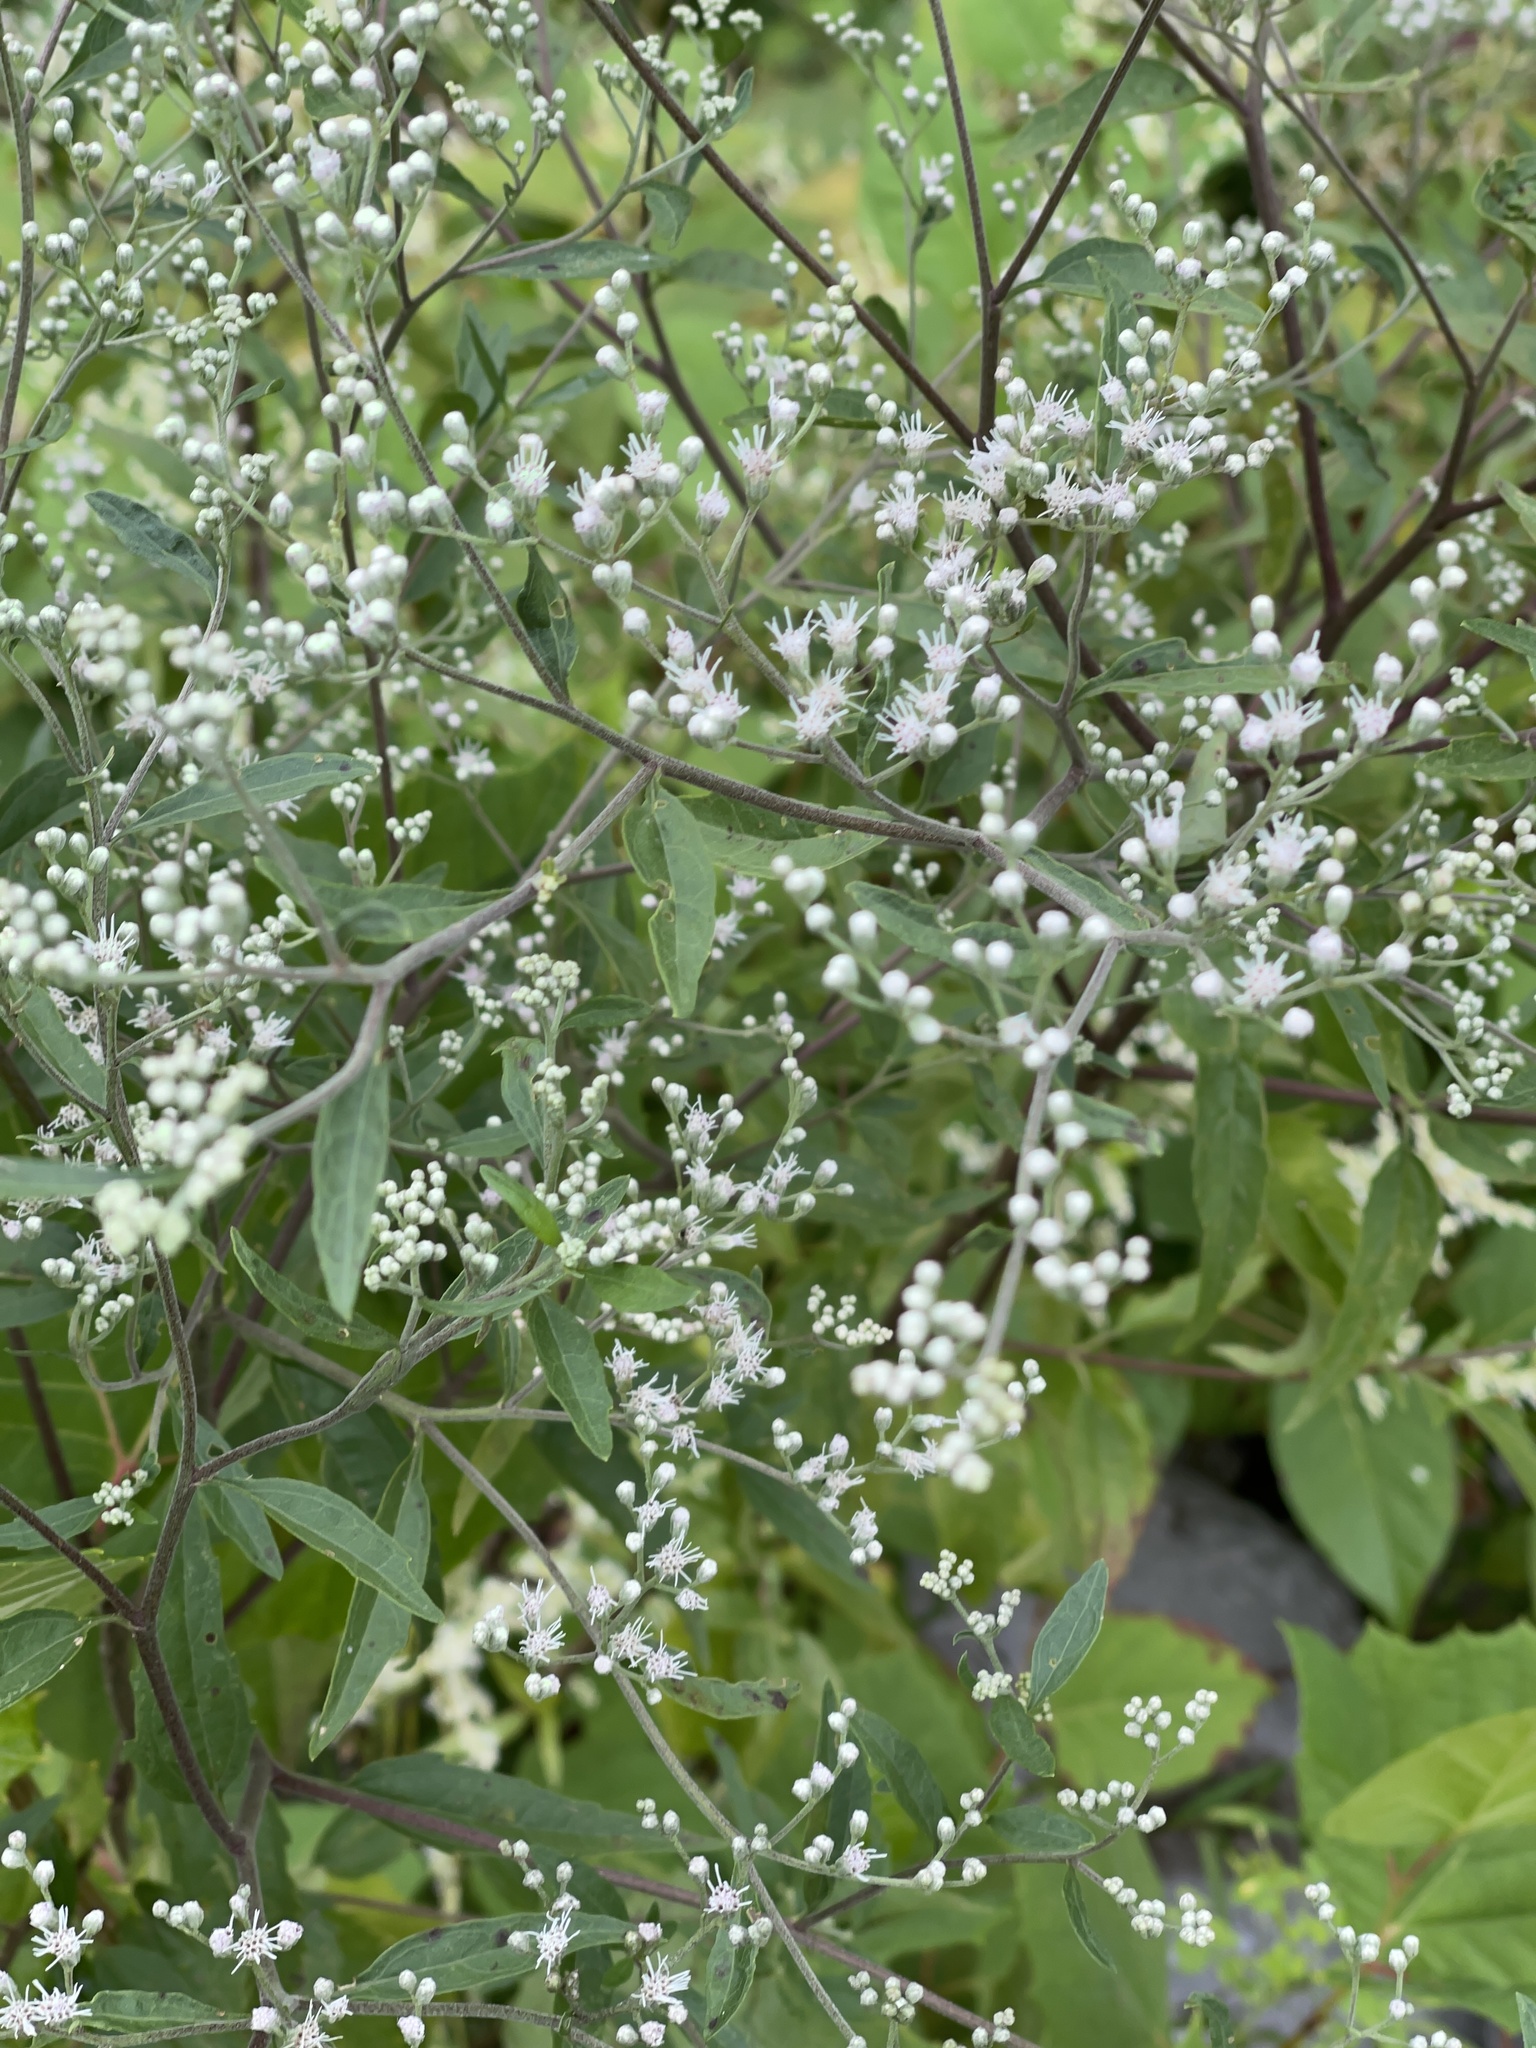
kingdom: Plantae
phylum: Tracheophyta
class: Magnoliopsida
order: Asterales
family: Asteraceae
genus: Eupatorium
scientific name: Eupatorium serotinum
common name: Late boneset
